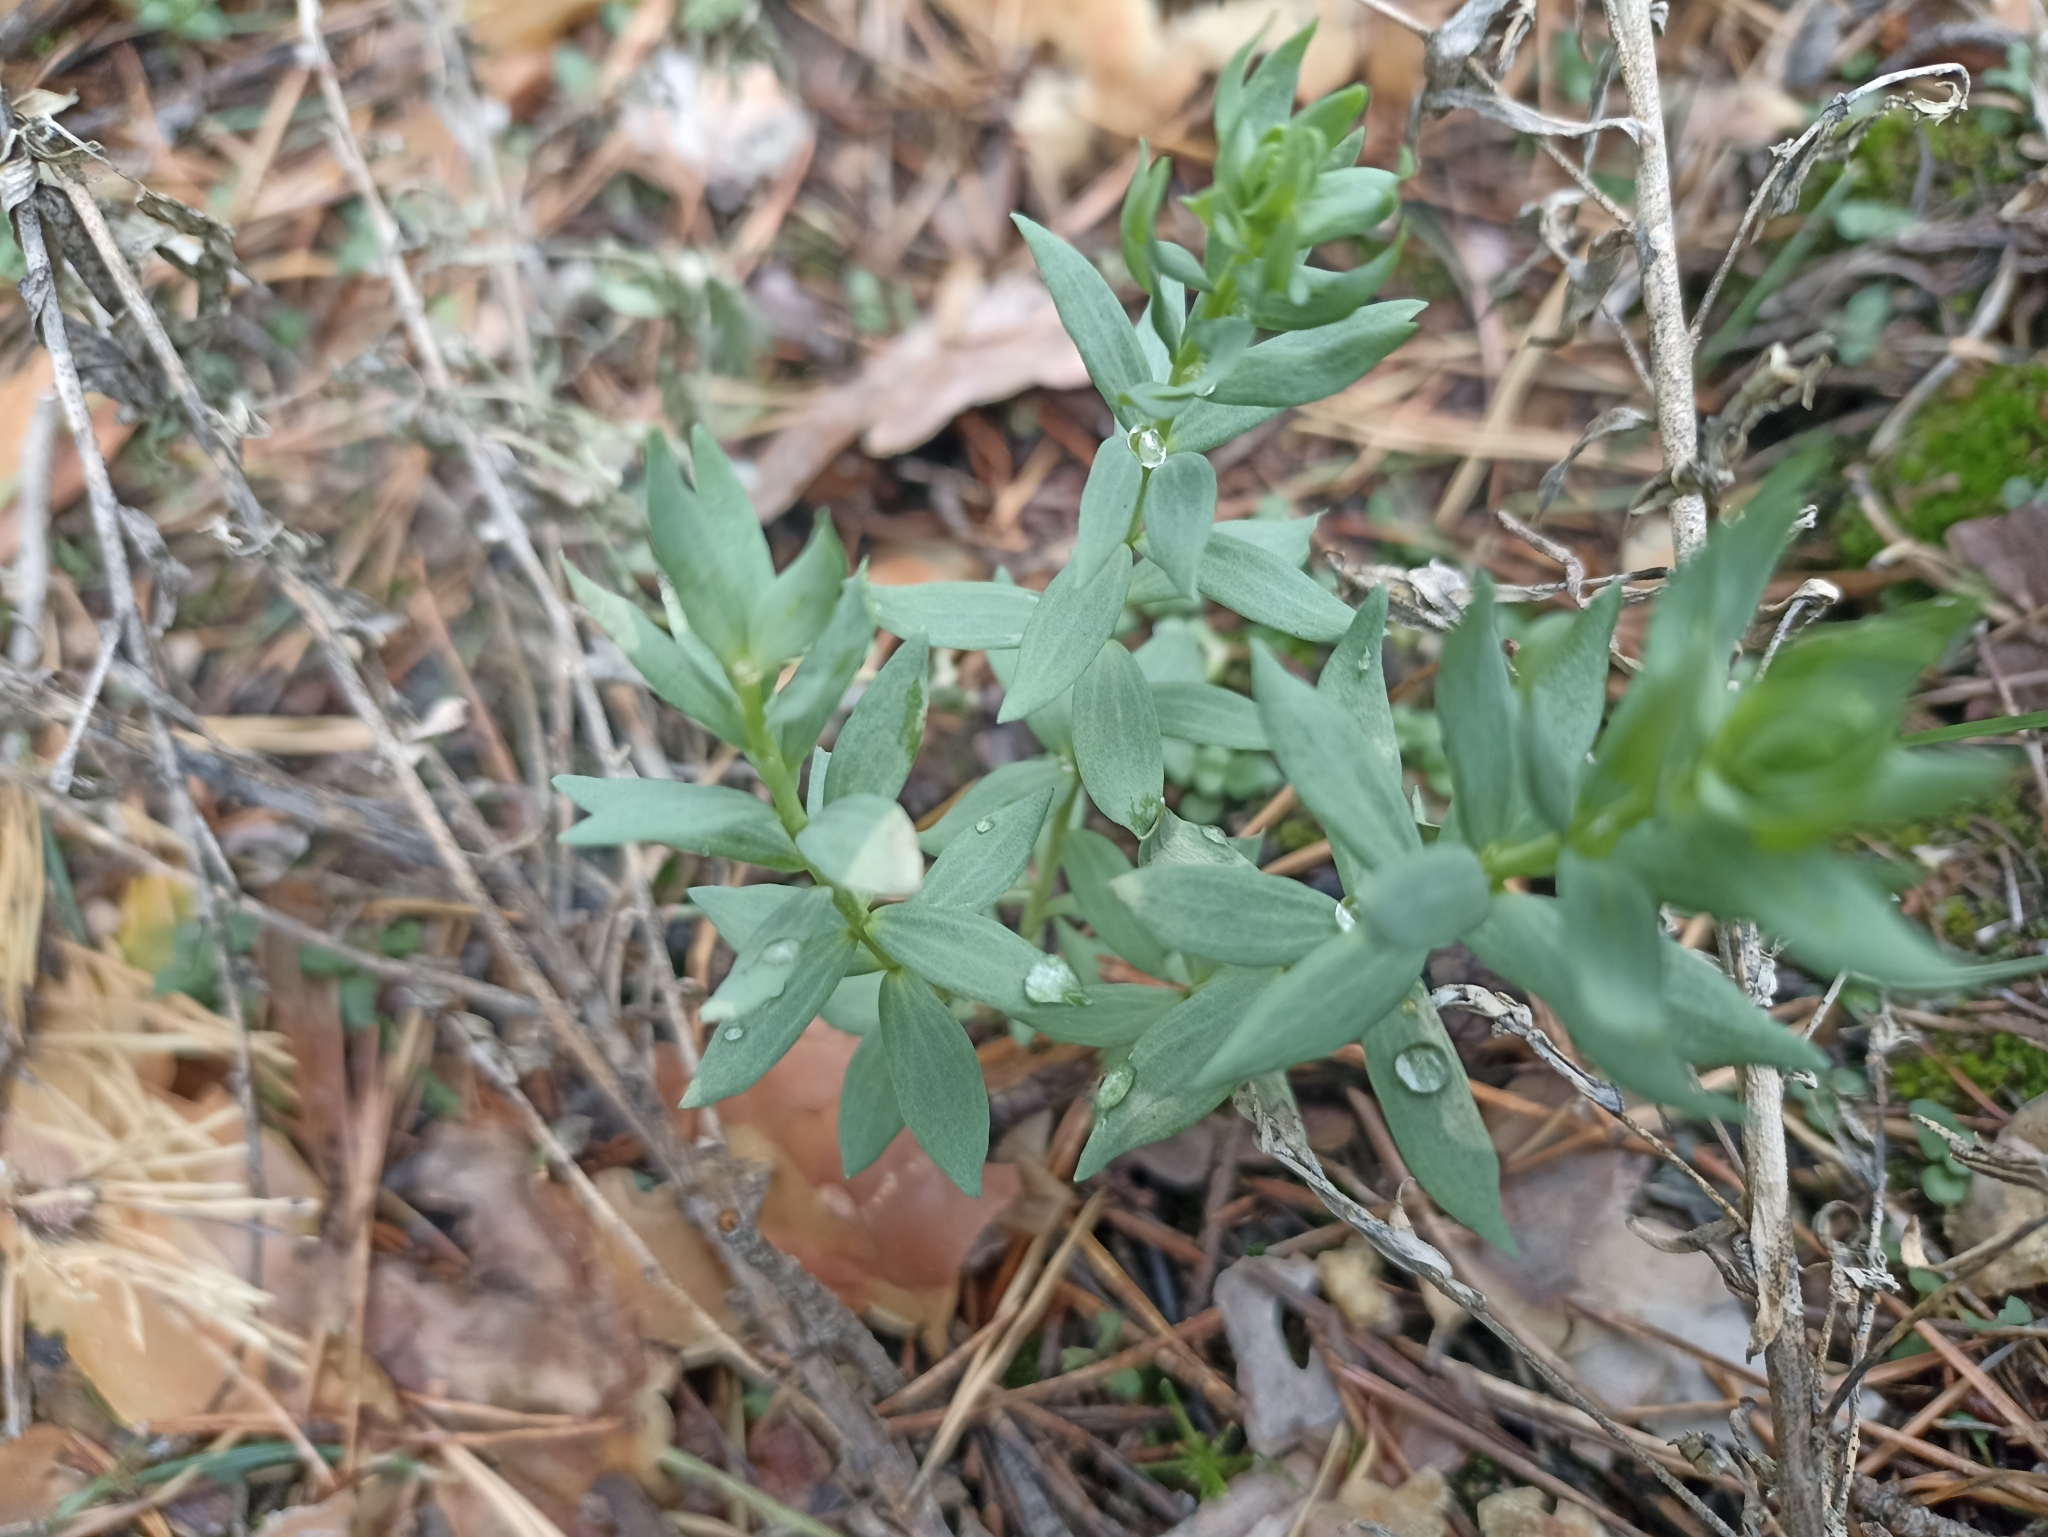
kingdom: Plantae
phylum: Tracheophyta
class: Magnoliopsida
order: Lamiales
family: Plantaginaceae
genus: Linaria
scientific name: Linaria nivea
